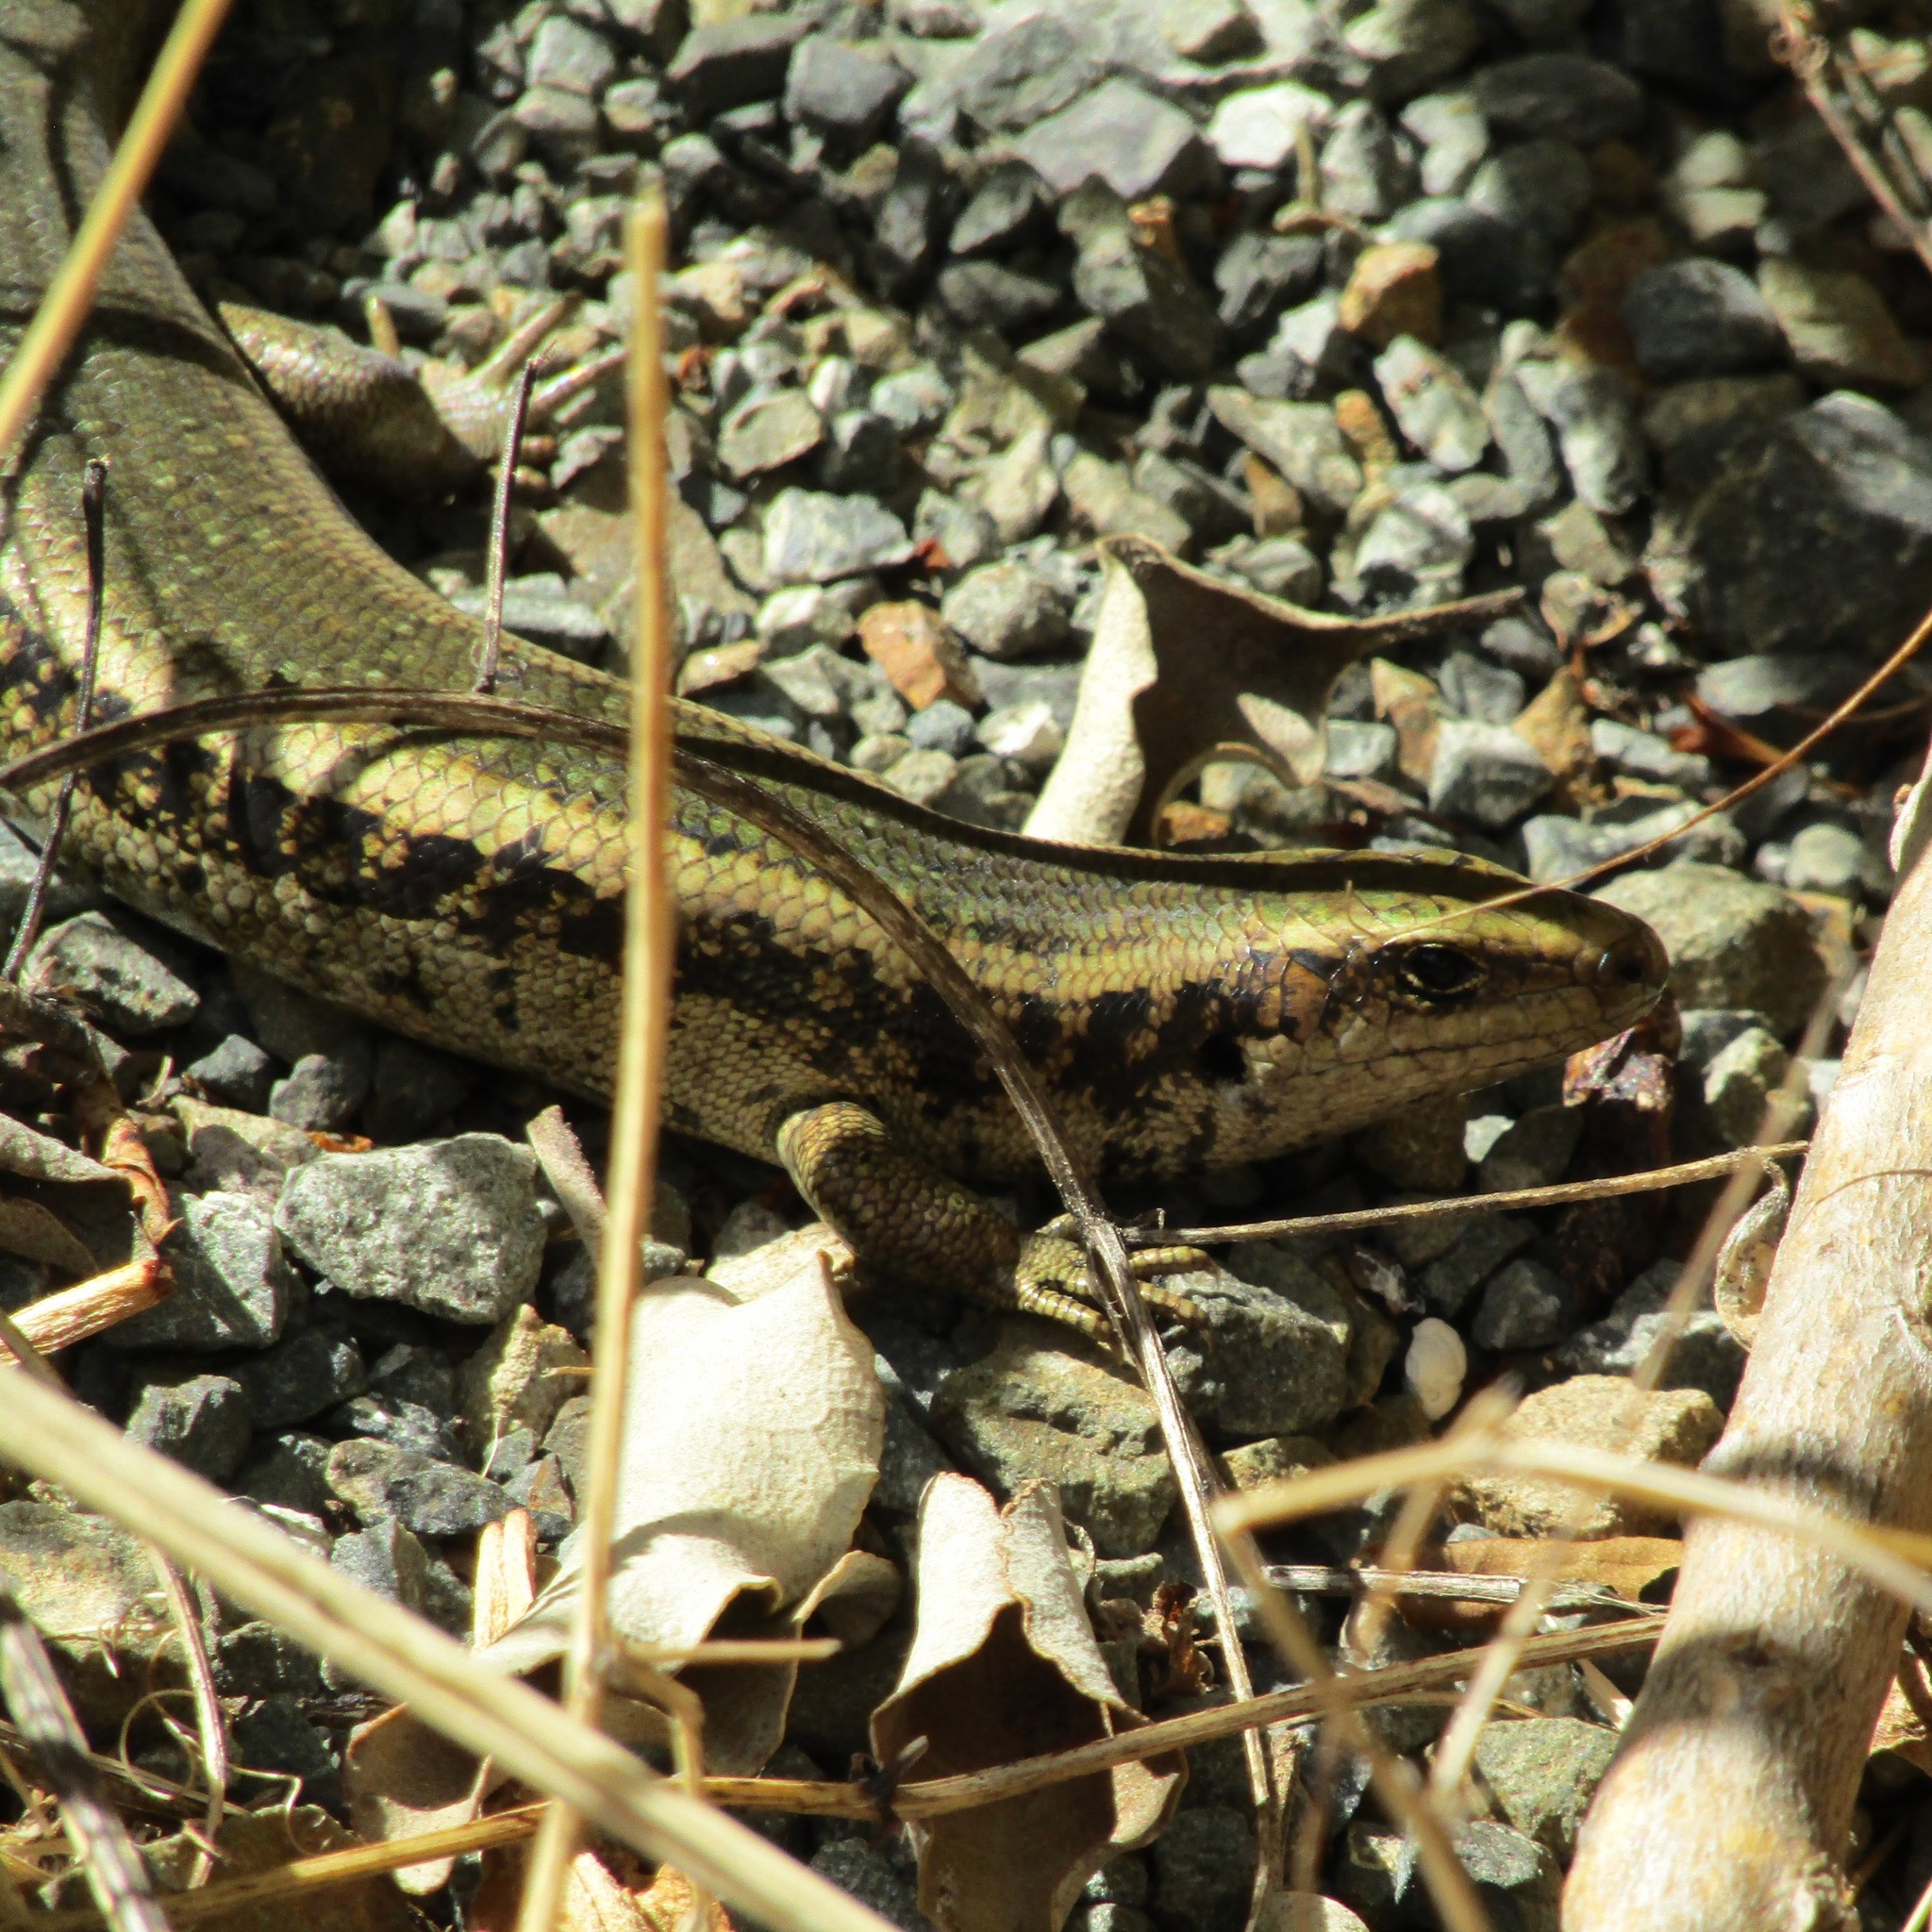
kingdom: Animalia
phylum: Chordata
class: Squamata
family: Scincidae
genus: Oligosoma
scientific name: Oligosoma kokowai
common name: Northern spotted skink
